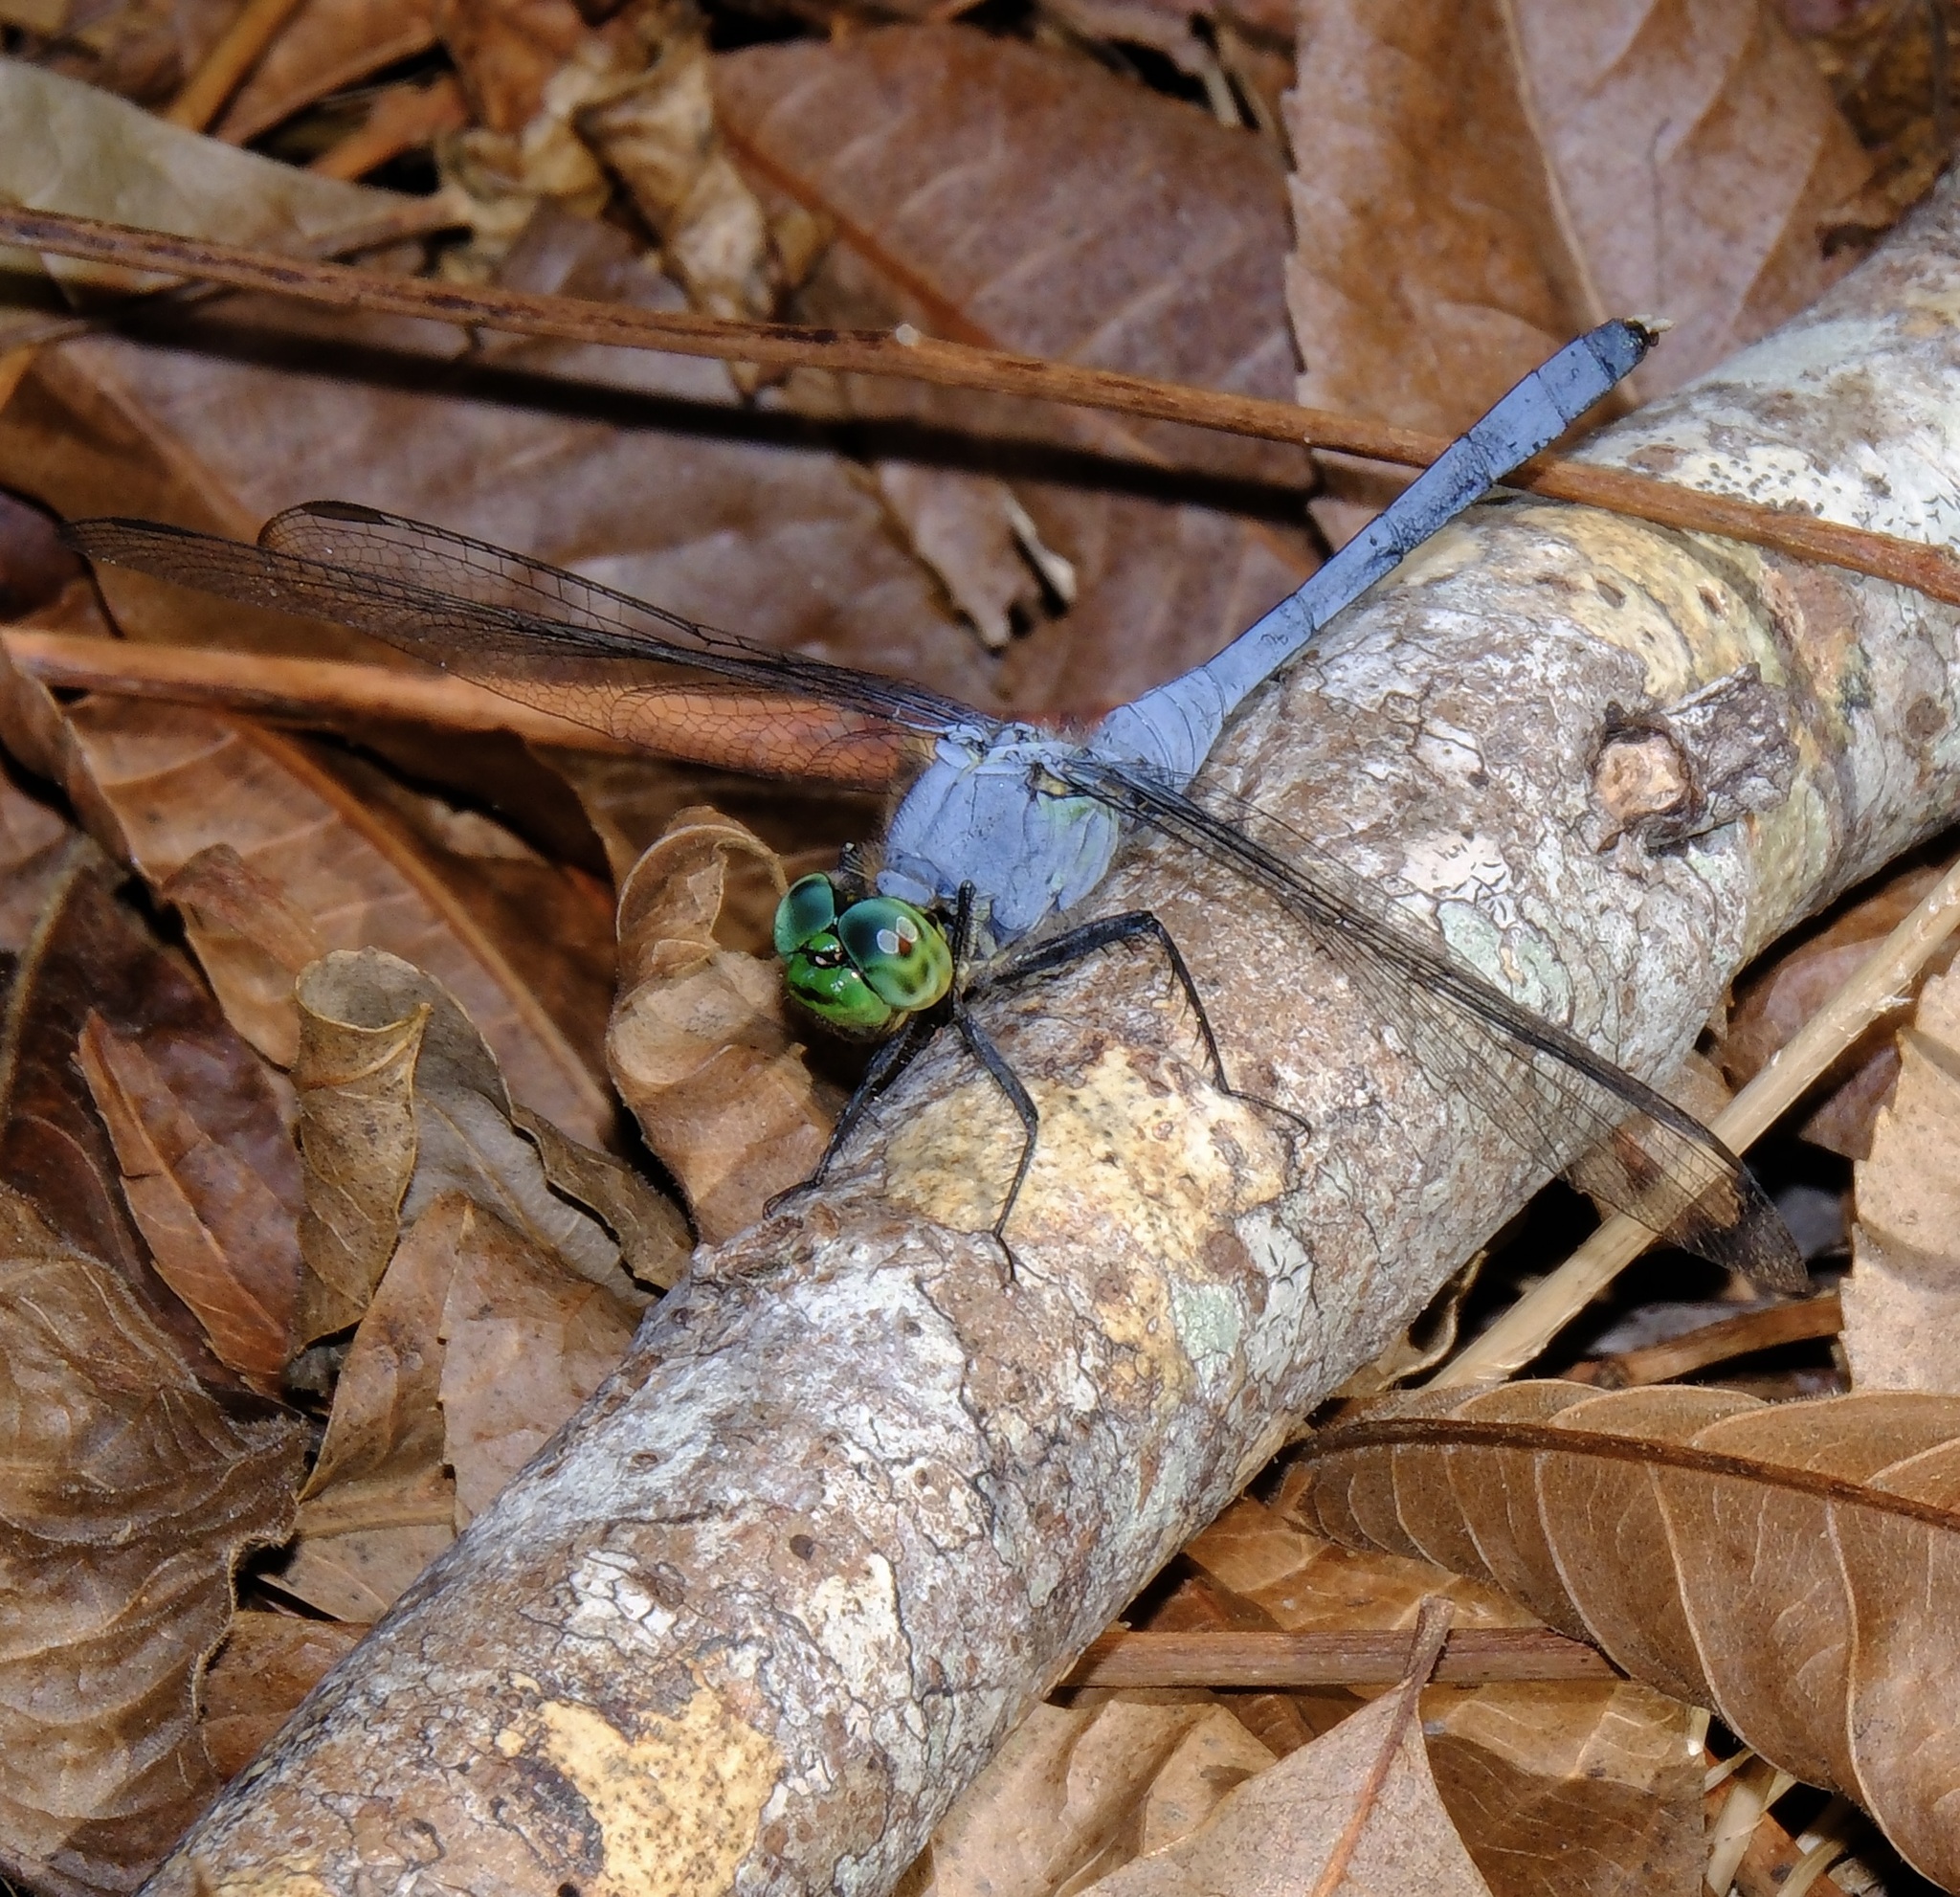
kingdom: Animalia
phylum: Arthropoda
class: Insecta
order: Odonata
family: Libellulidae
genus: Erythemis
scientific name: Erythemis simplicicollis
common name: Eastern pondhawk
